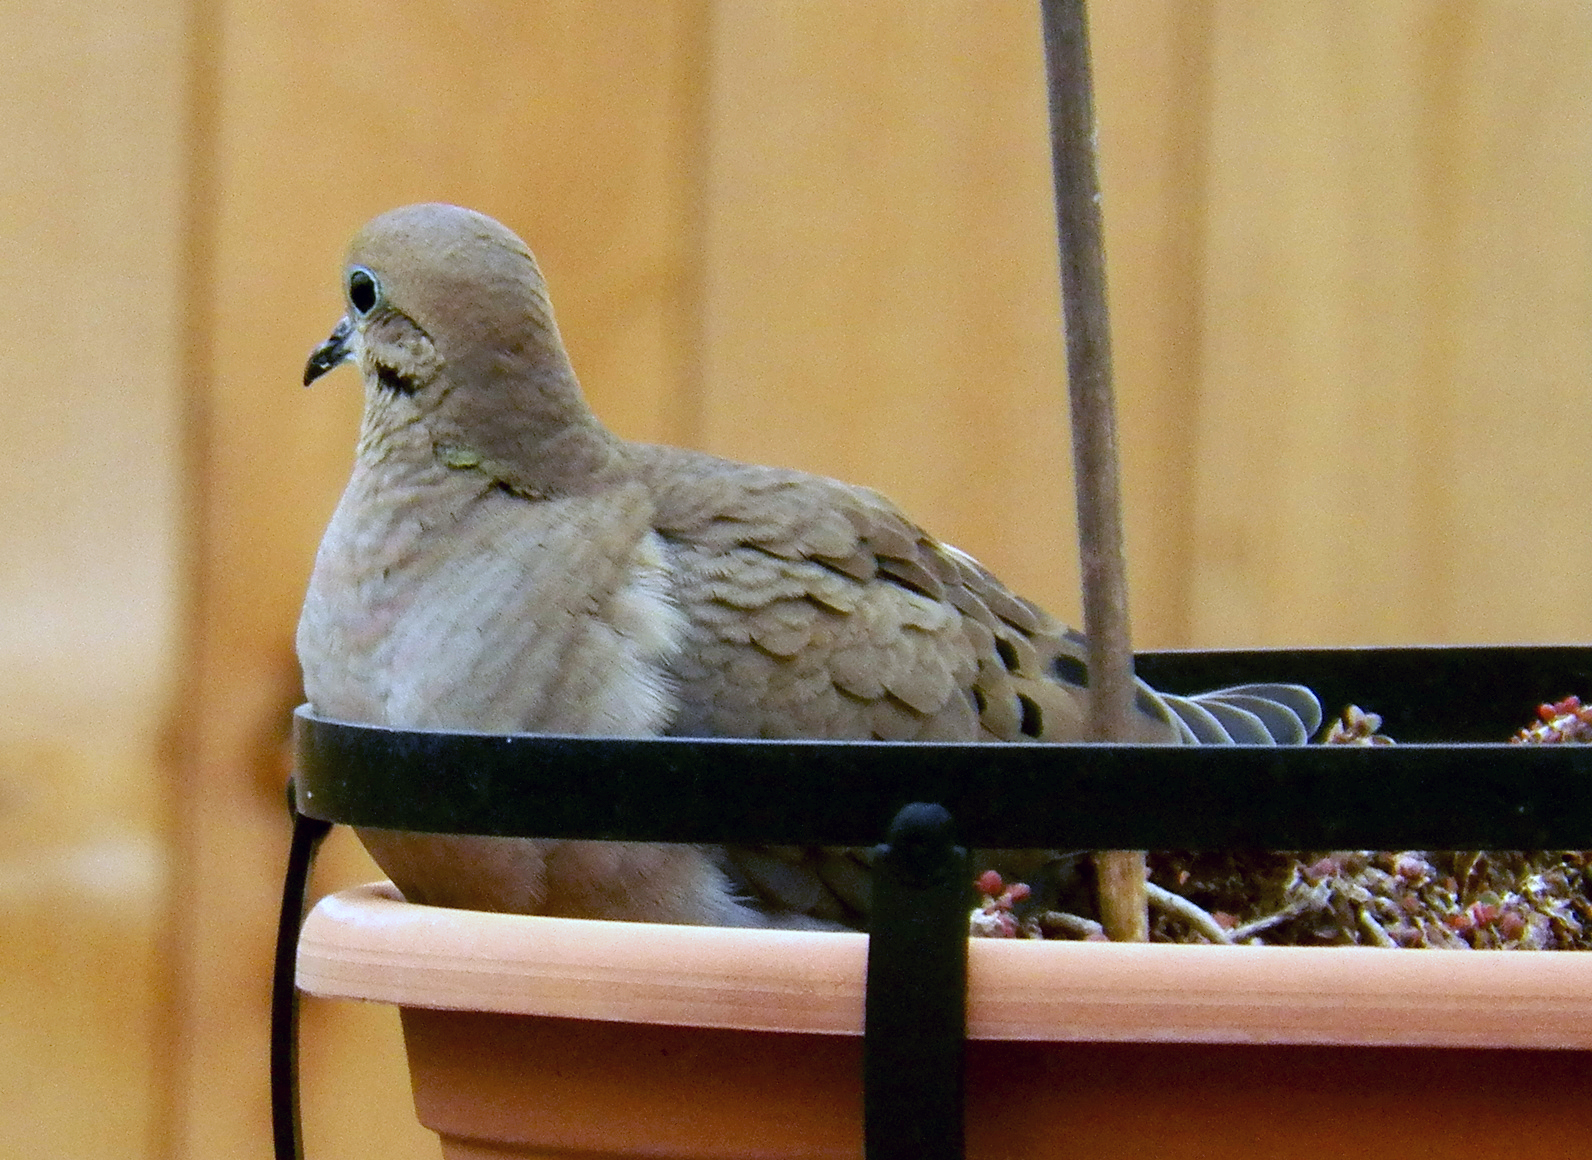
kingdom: Animalia
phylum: Chordata
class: Aves
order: Columbiformes
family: Columbidae
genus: Zenaida
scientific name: Zenaida macroura
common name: Mourning dove
